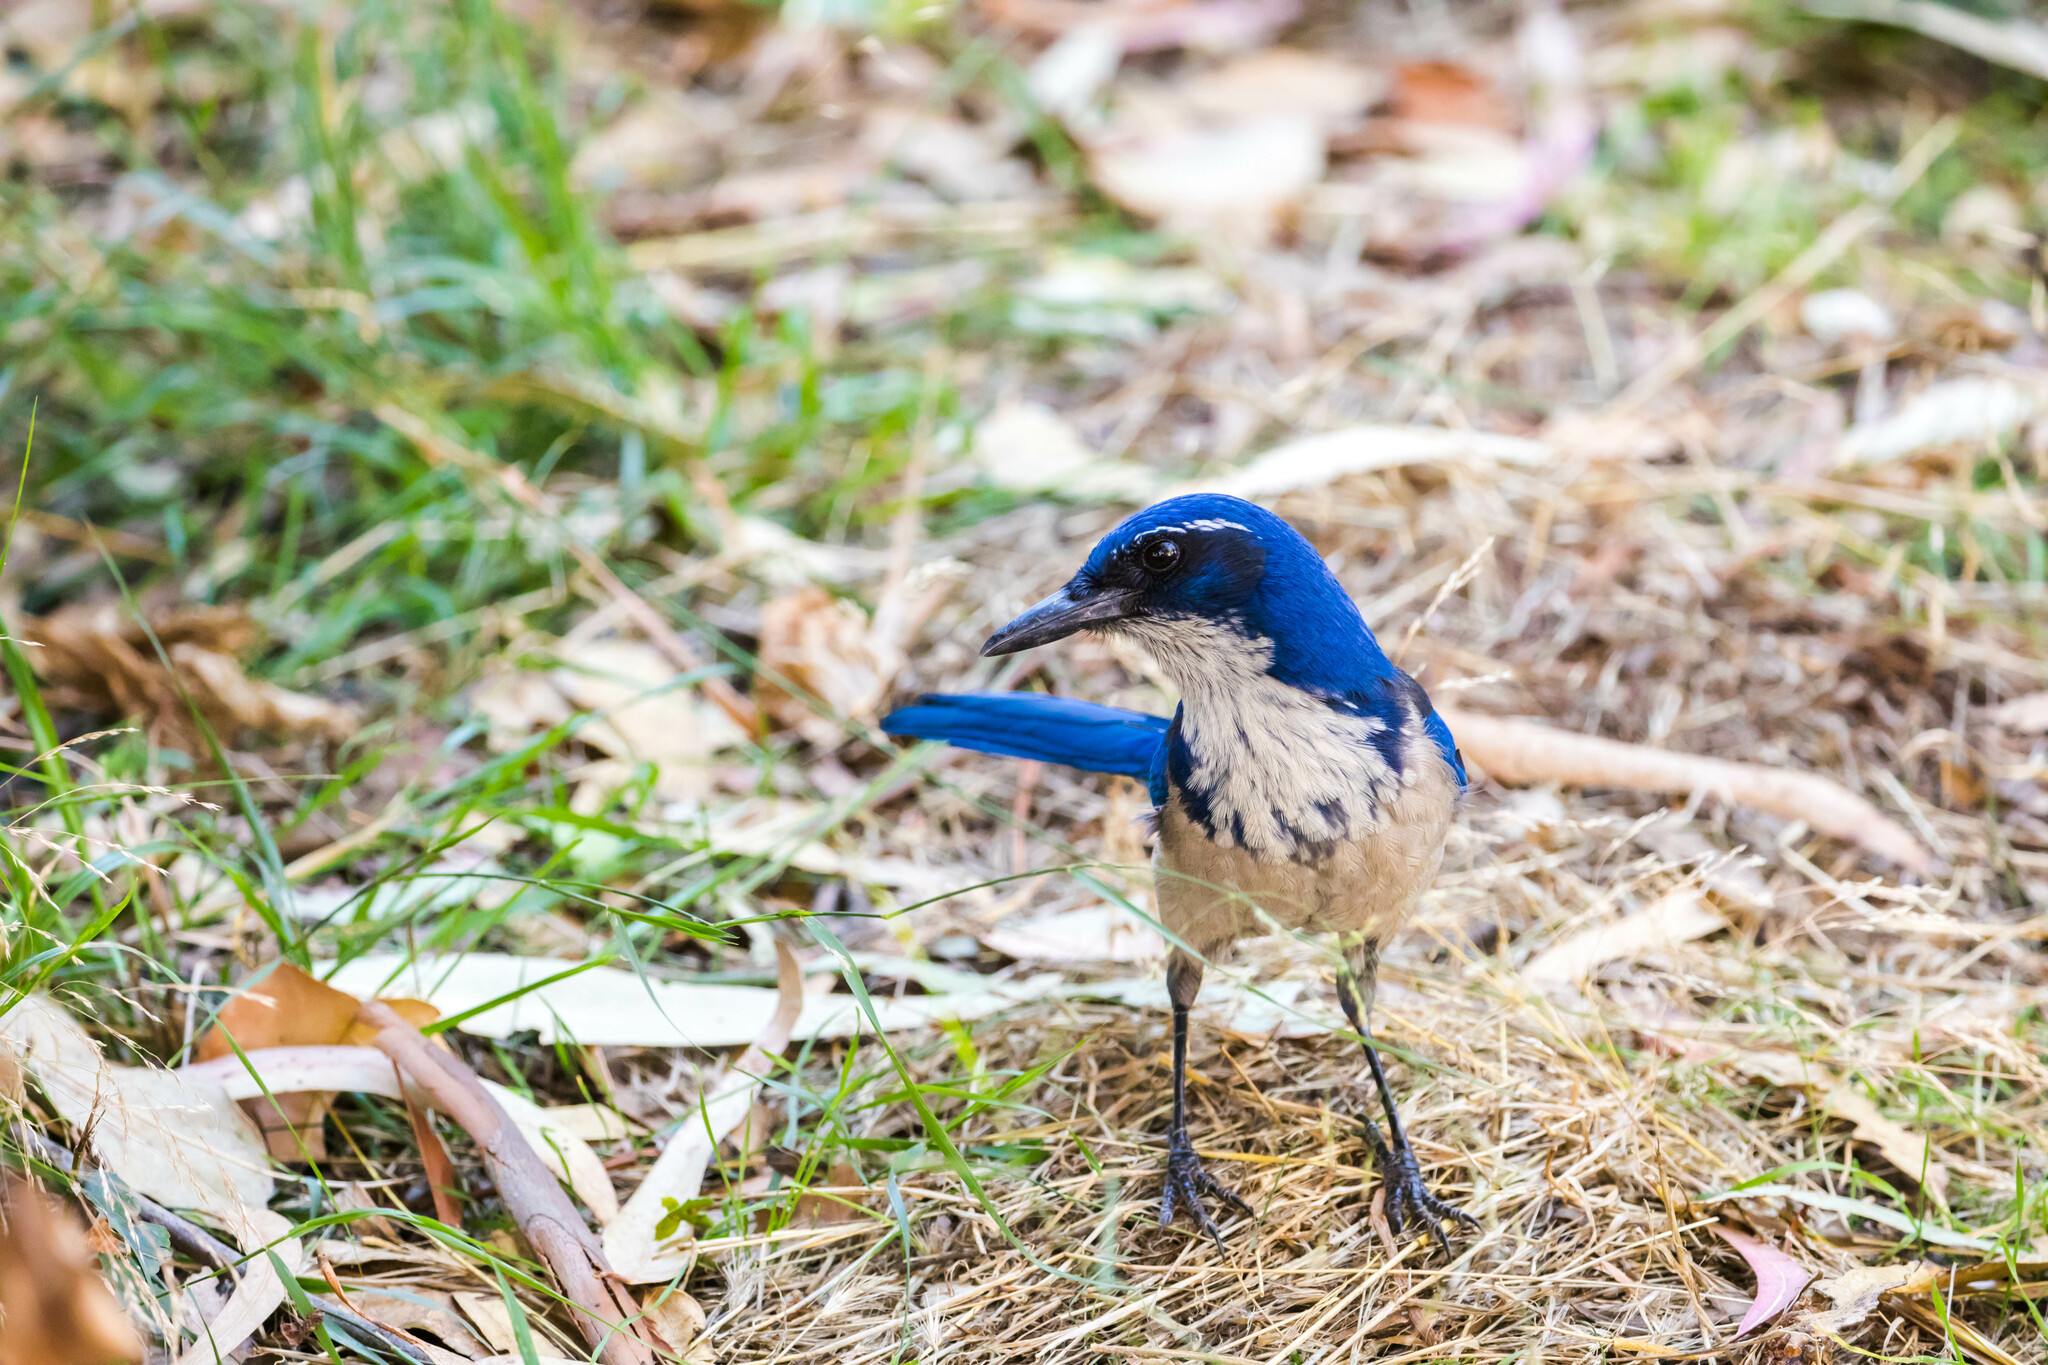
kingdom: Animalia
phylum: Chordata
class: Aves
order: Passeriformes
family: Corvidae
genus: Aphelocoma
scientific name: Aphelocoma insularis
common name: Island scrub-jay
